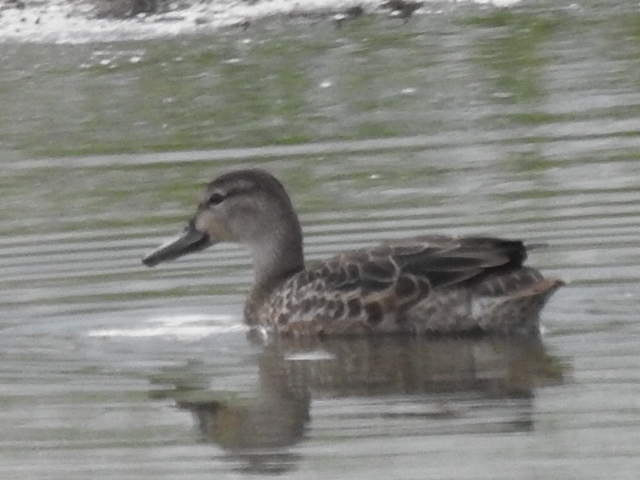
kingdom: Animalia
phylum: Chordata
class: Aves
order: Anseriformes
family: Anatidae
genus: Spatula
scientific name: Spatula discors
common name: Blue-winged teal
